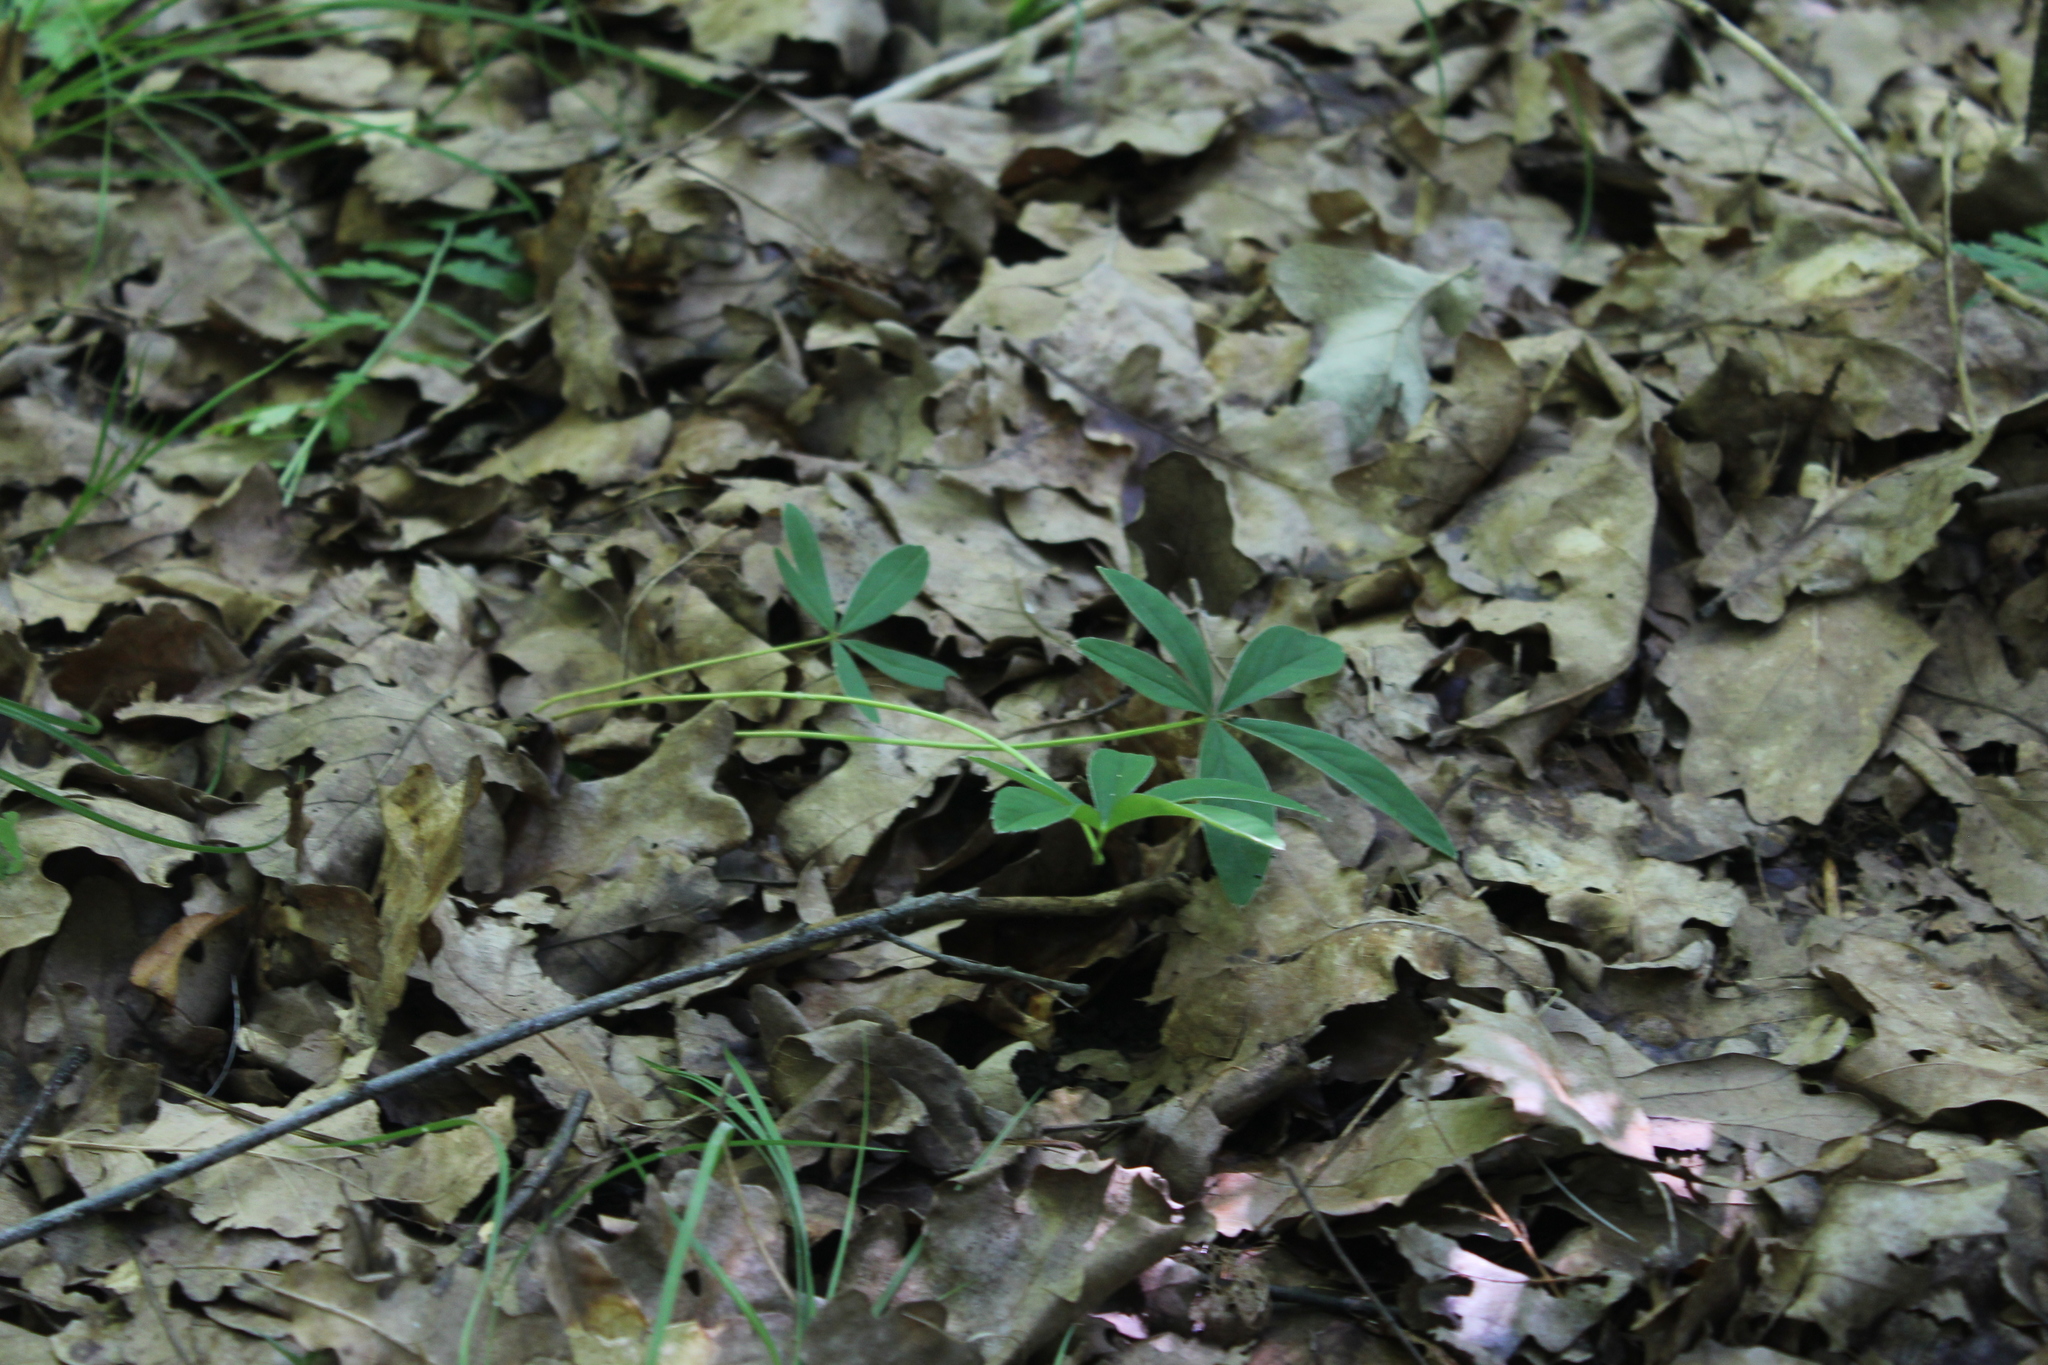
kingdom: Plantae
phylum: Tracheophyta
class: Magnoliopsida
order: Rosales
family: Rosaceae
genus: Potentilla
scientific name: Potentilla alba
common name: White cinquefoil
